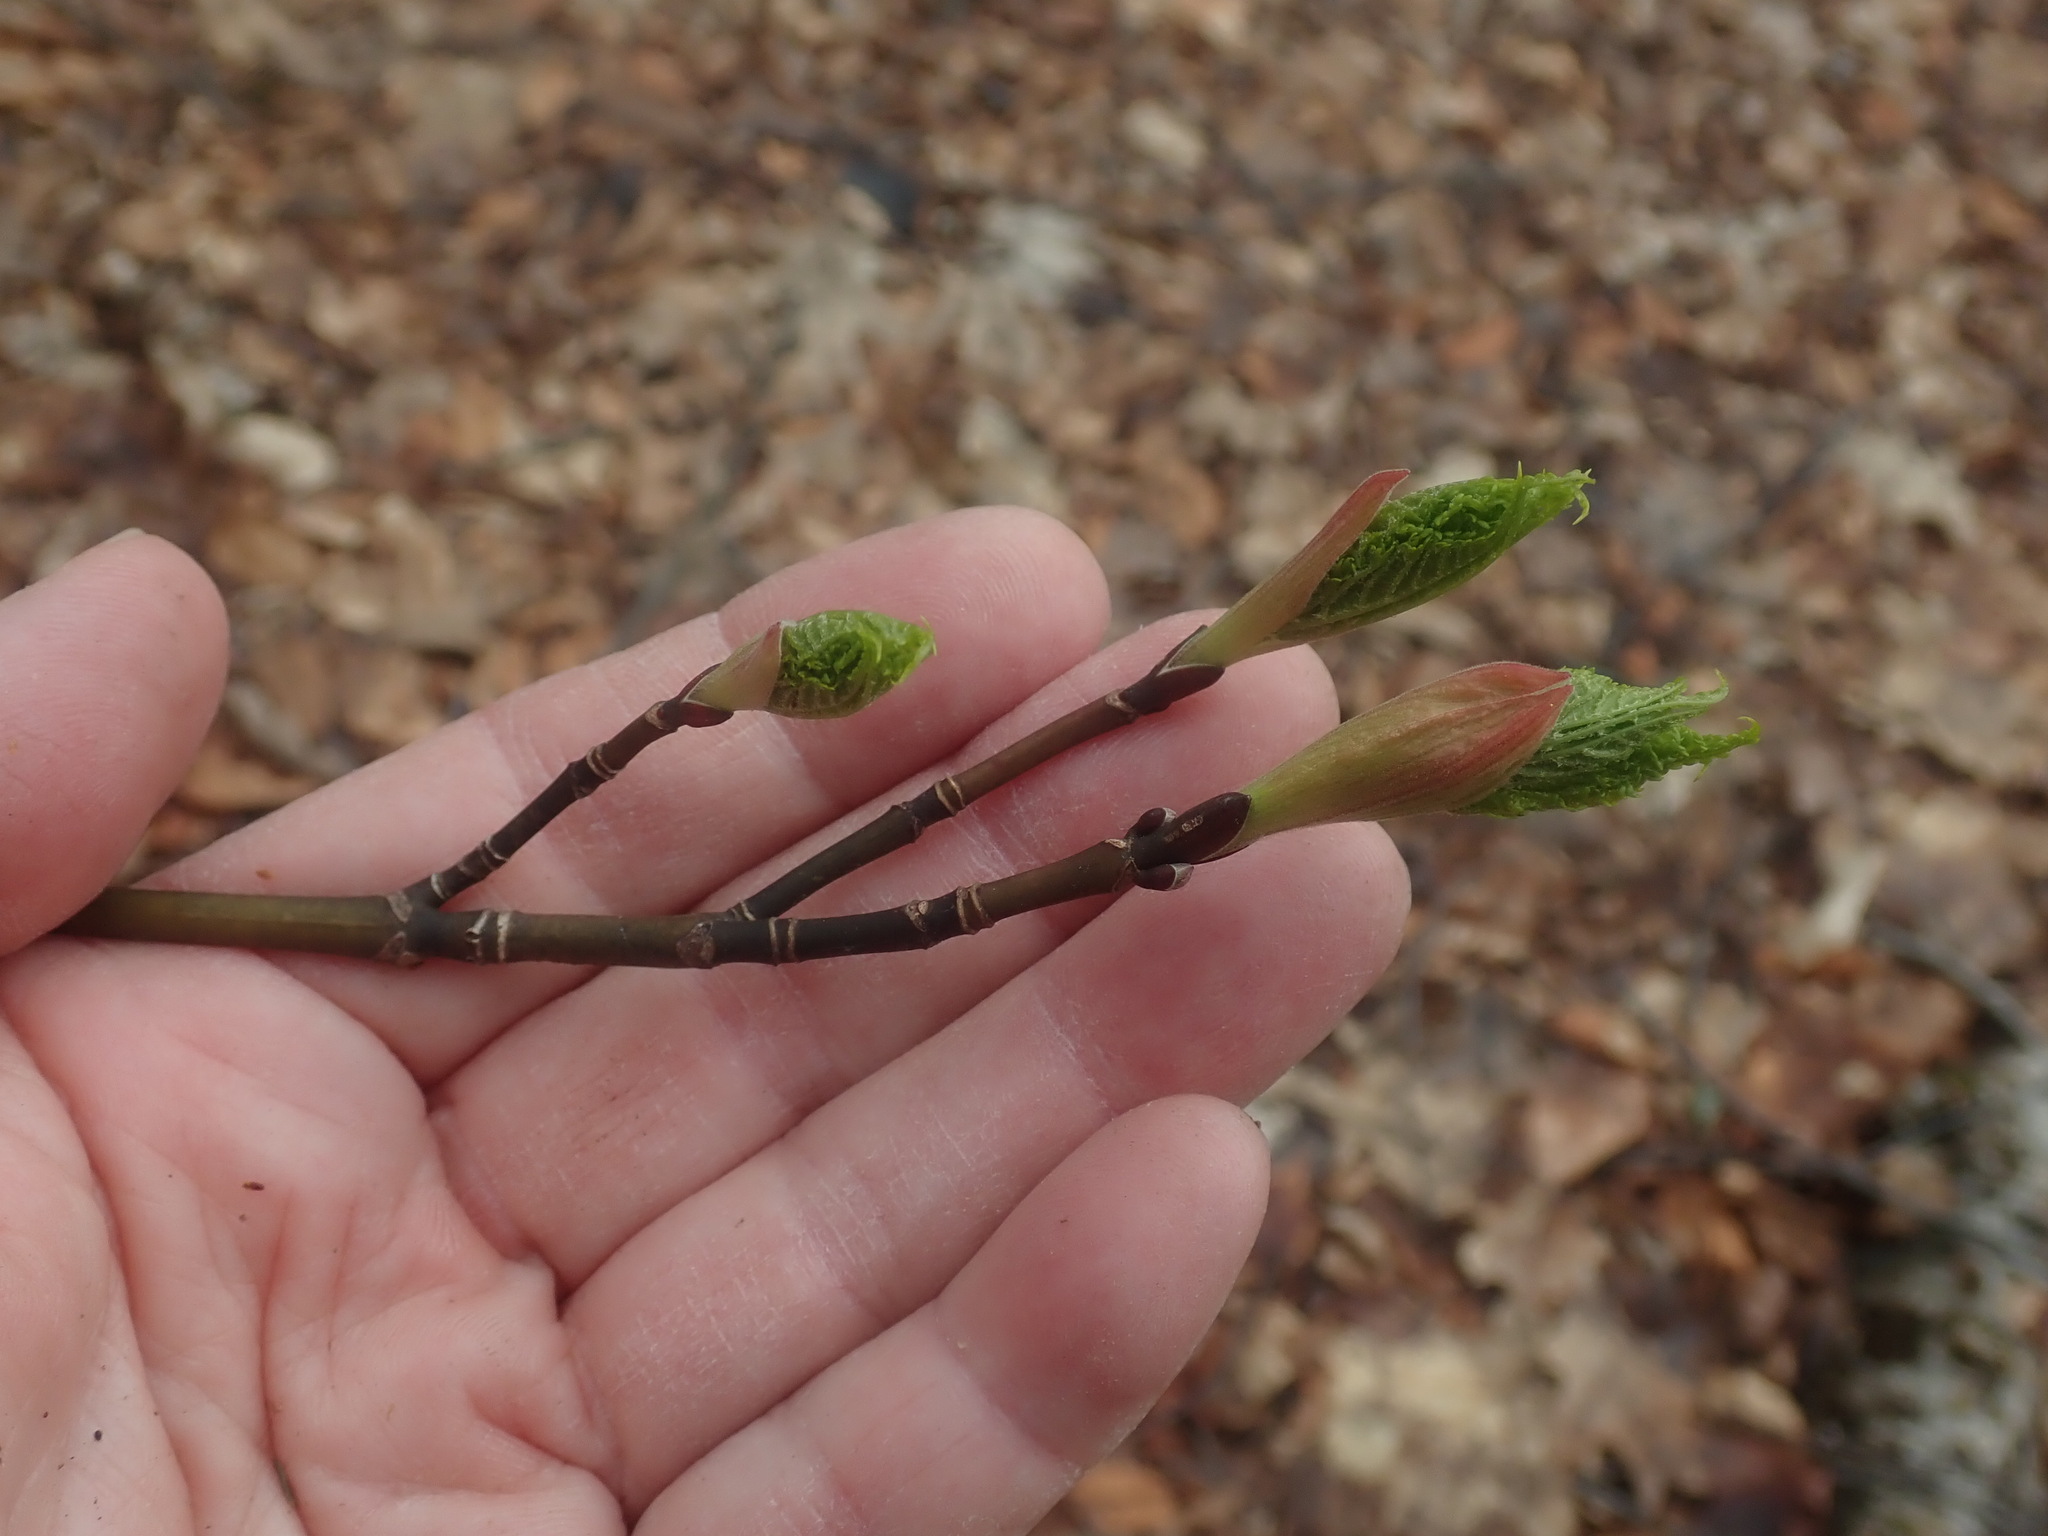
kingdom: Plantae
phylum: Tracheophyta
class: Magnoliopsida
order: Sapindales
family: Sapindaceae
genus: Acer
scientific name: Acer pensylvanicum
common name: Moosewood
